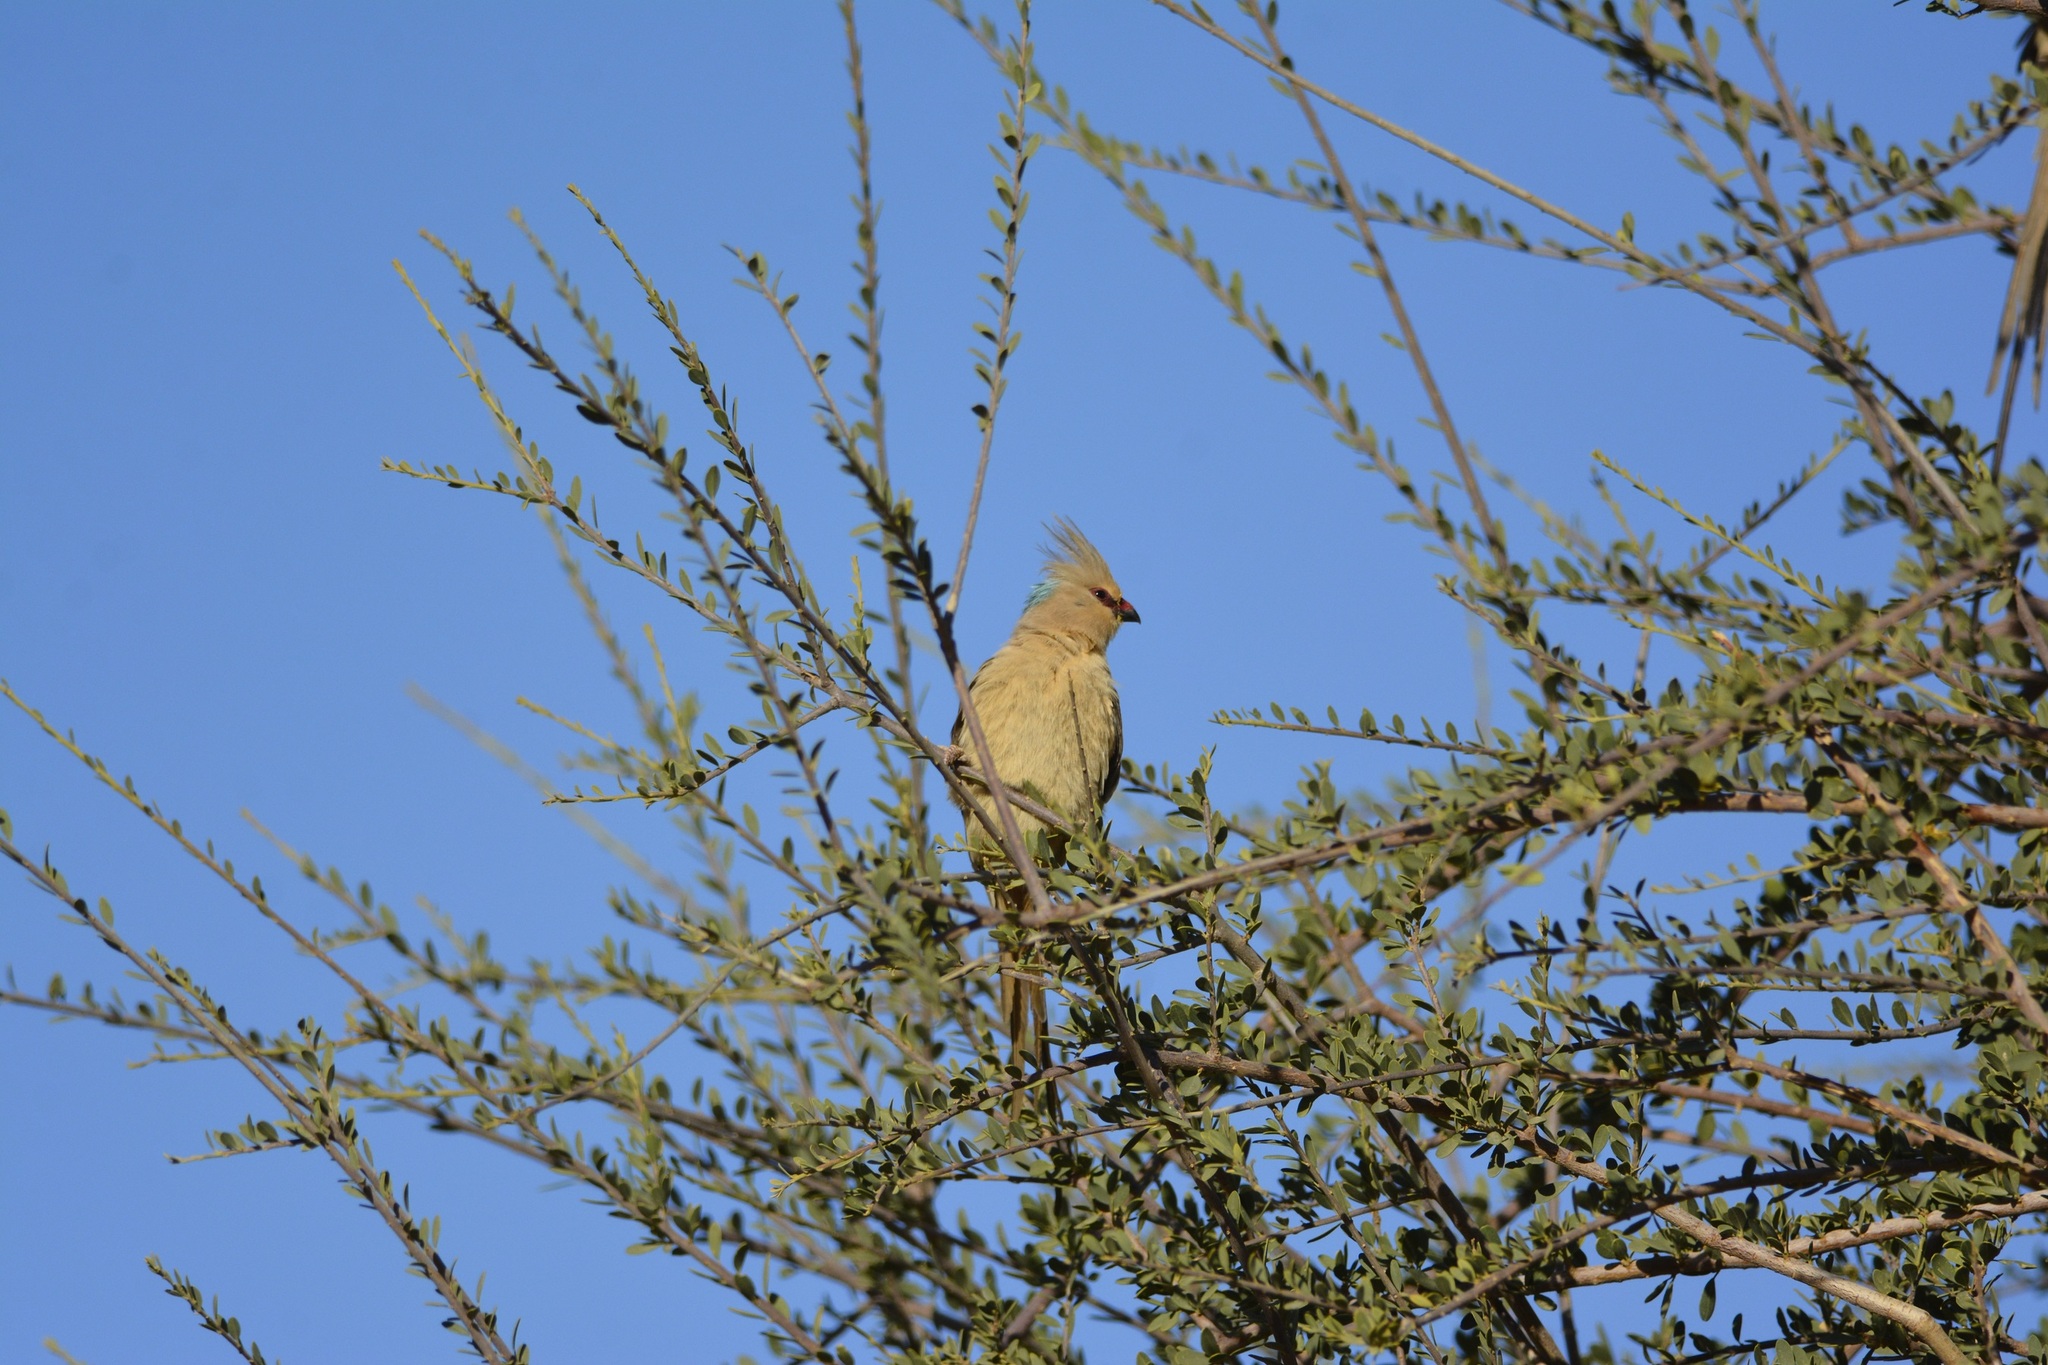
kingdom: Animalia
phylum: Chordata
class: Aves
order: Coliiformes
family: Coliidae
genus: Urocolius
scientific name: Urocolius macrourus
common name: Blue-naped mousebird
